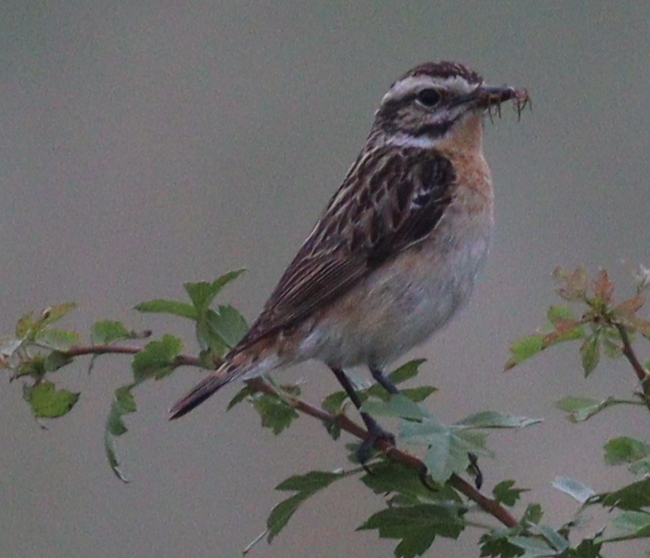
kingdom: Animalia
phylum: Chordata
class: Aves
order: Passeriformes
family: Muscicapidae
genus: Saxicola
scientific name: Saxicola rubetra
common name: Whinchat
